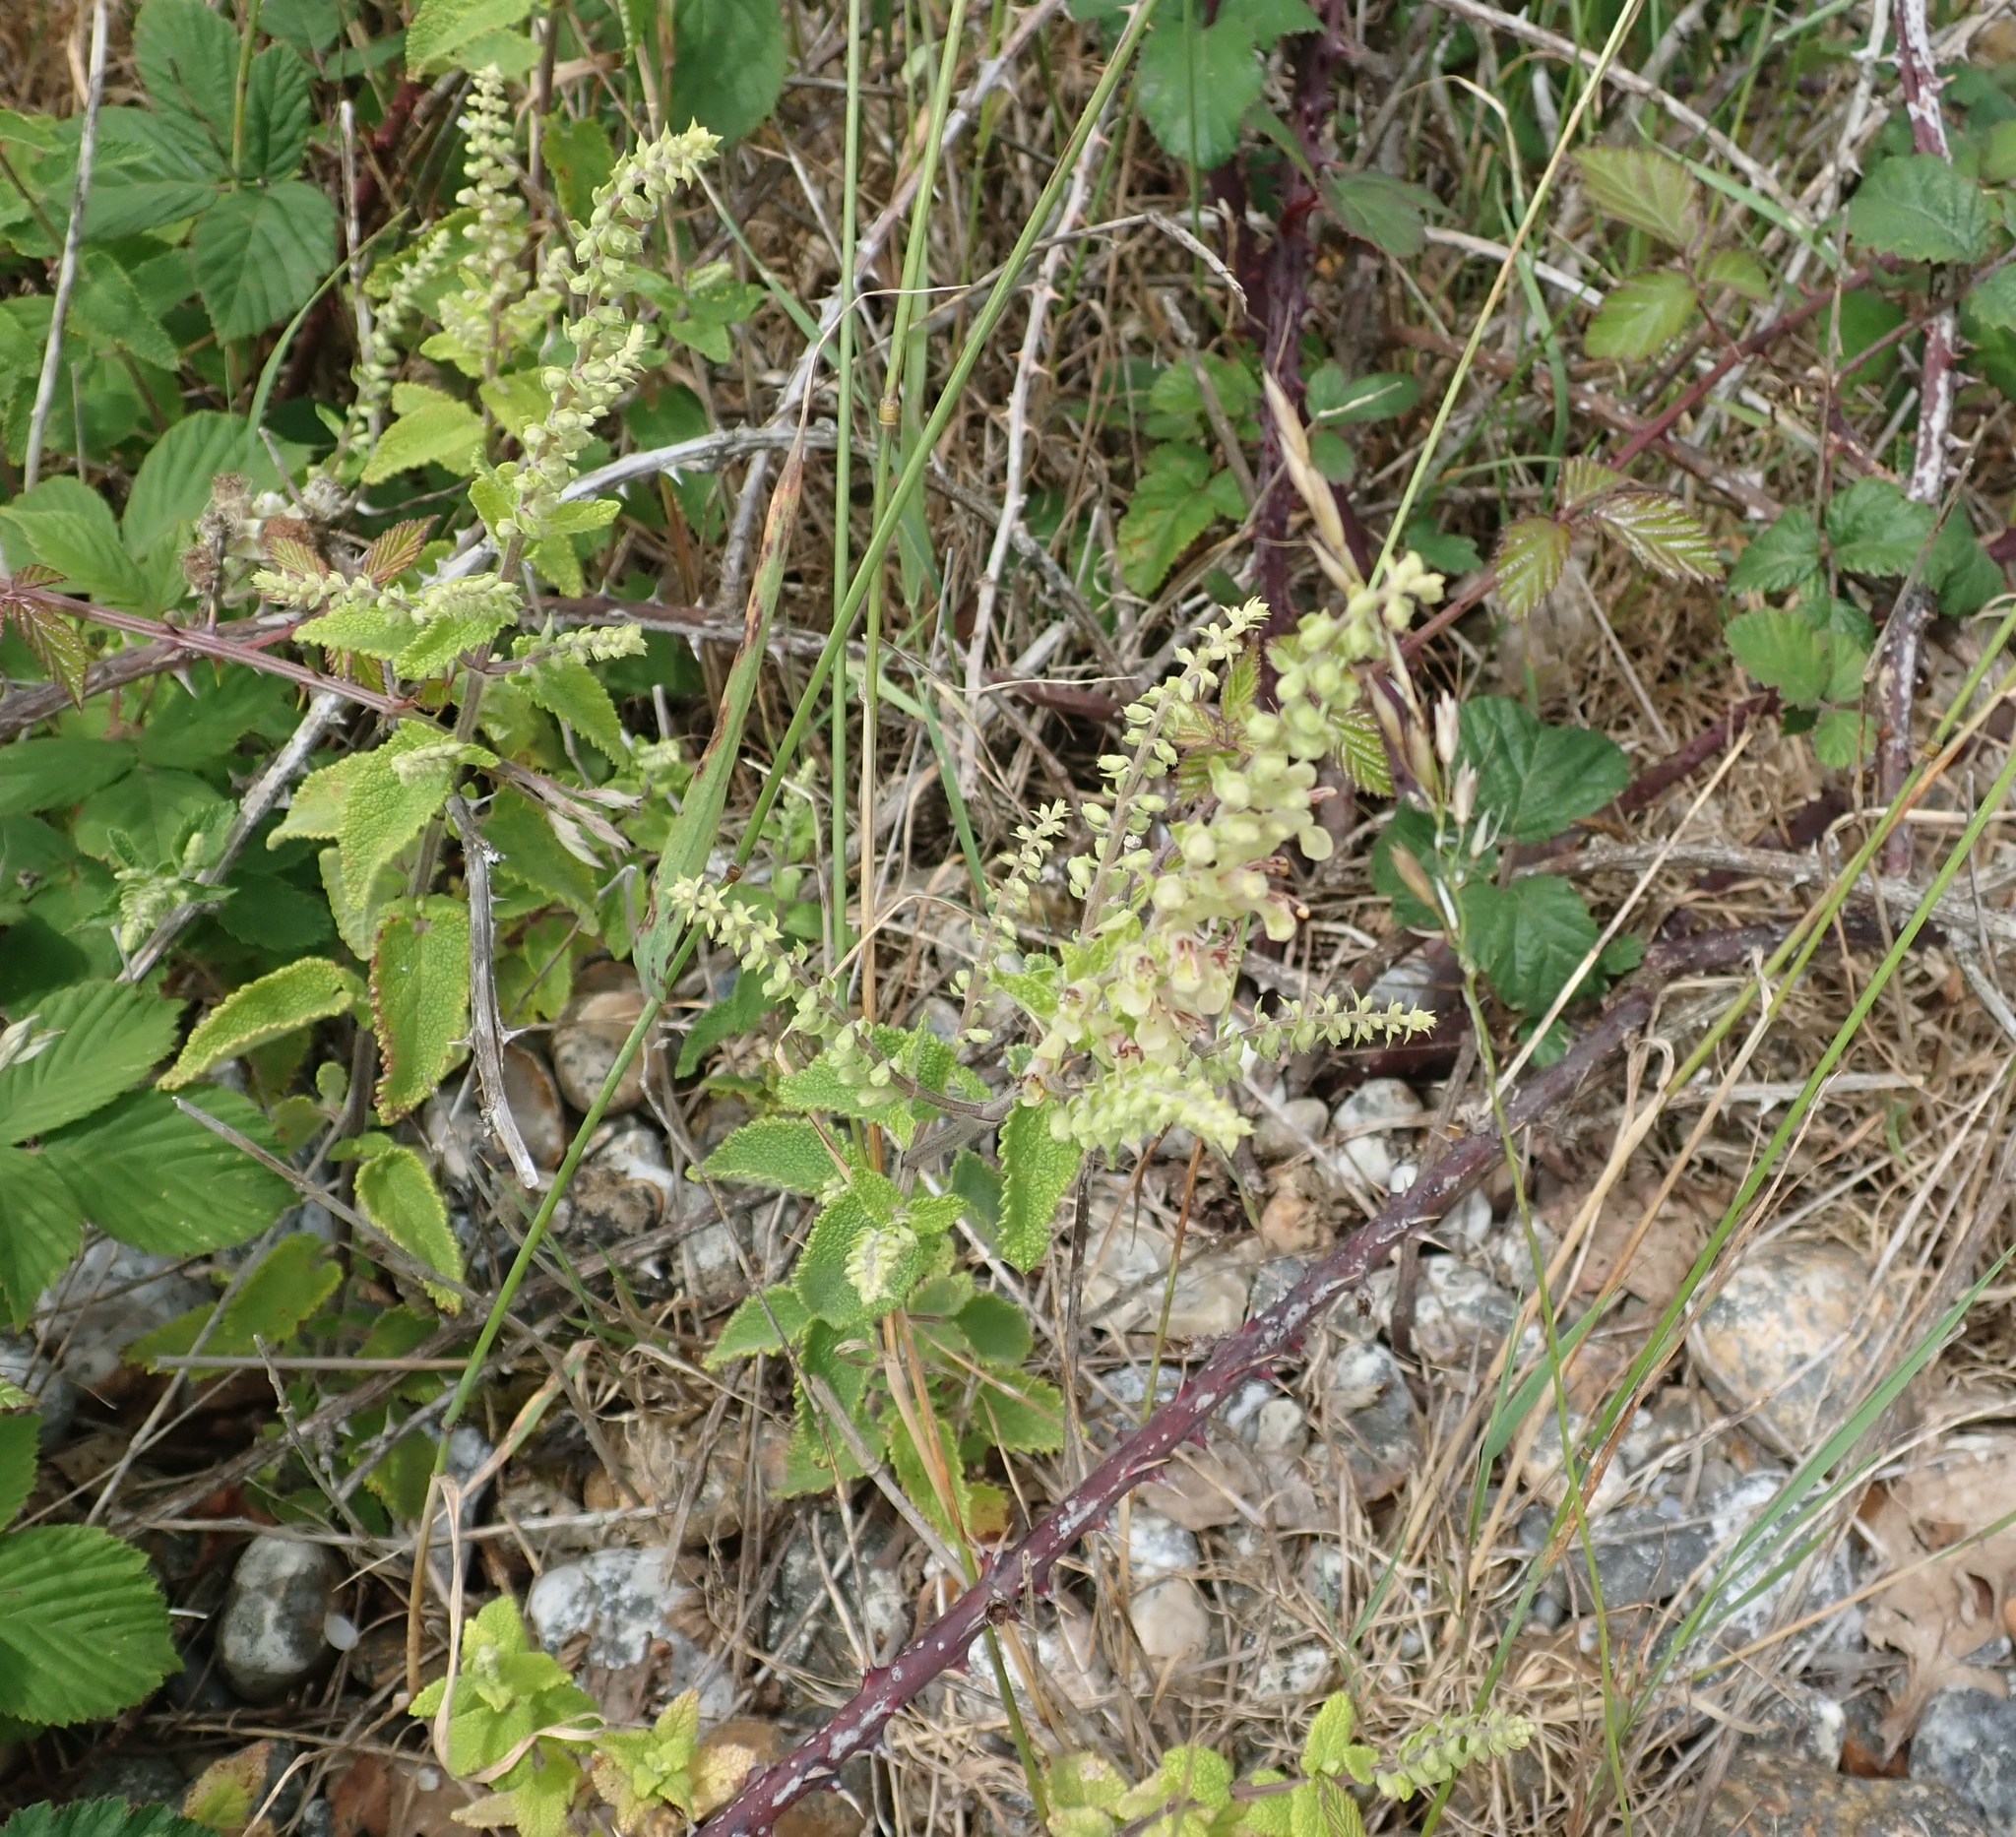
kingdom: Plantae
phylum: Tracheophyta
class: Magnoliopsida
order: Lamiales
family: Lamiaceae
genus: Teucrium
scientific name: Teucrium scorodonia
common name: Woodland germander
